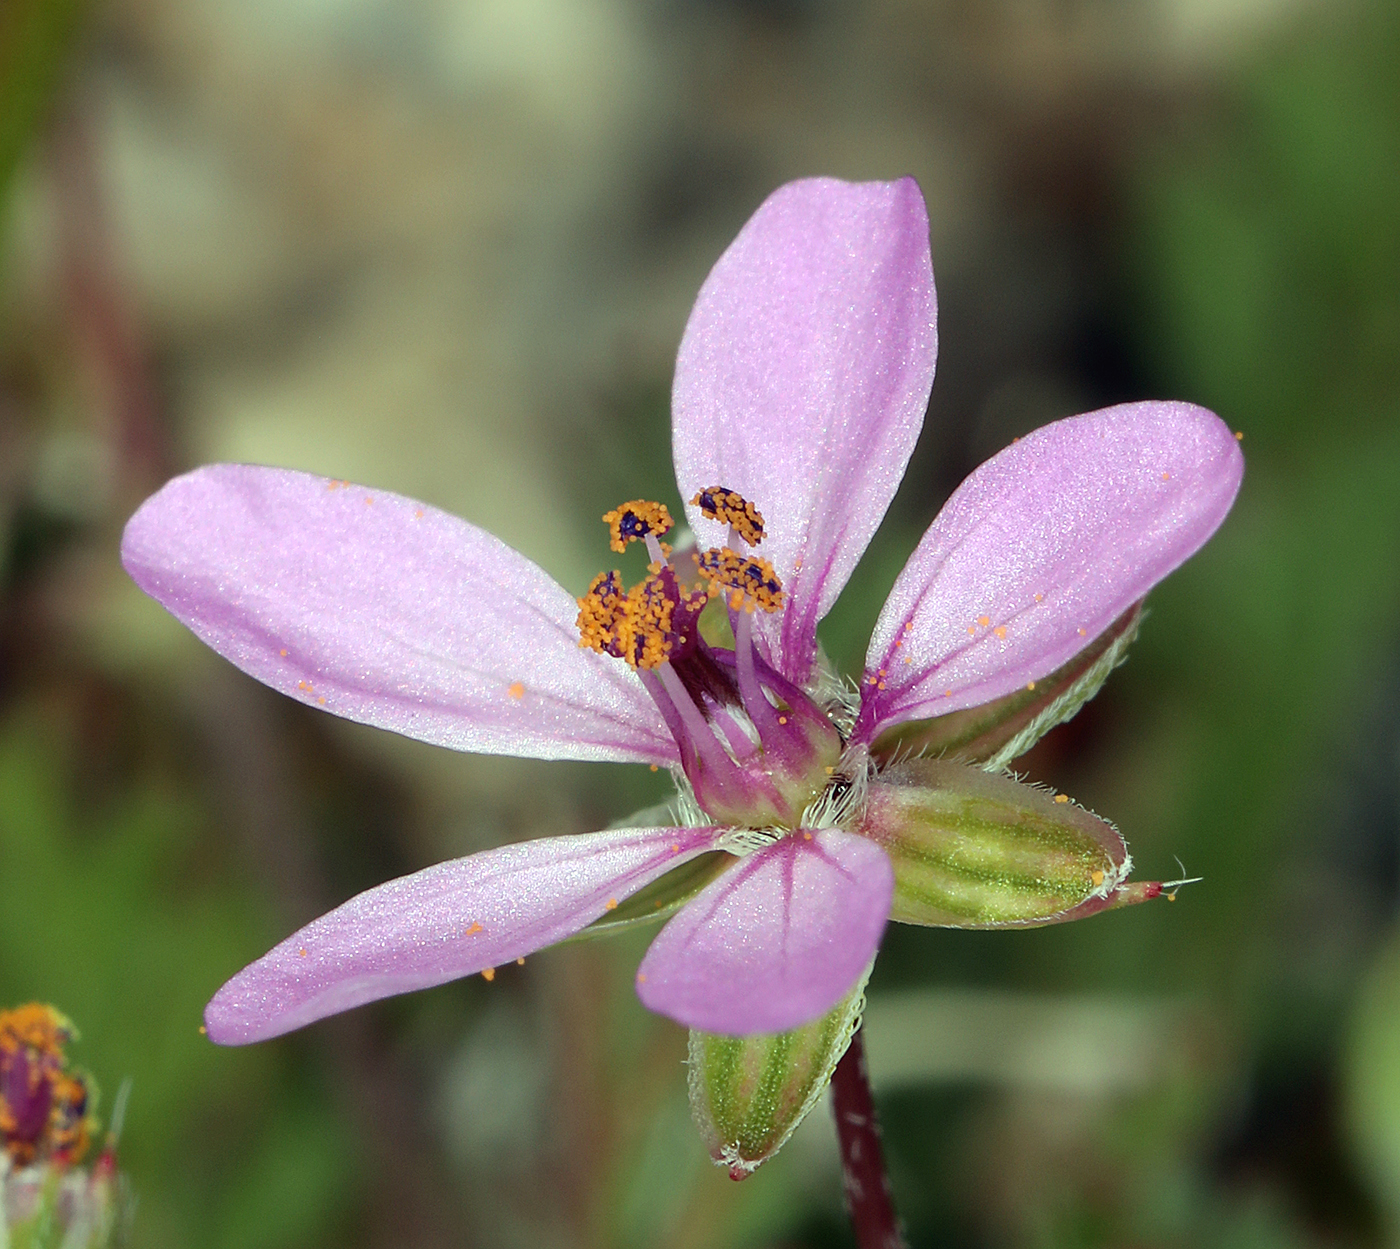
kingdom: Plantae
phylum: Tracheophyta
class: Magnoliopsida
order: Geraniales
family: Geraniaceae
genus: Erodium
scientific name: Erodium cicutarium
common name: Common stork's-bill
